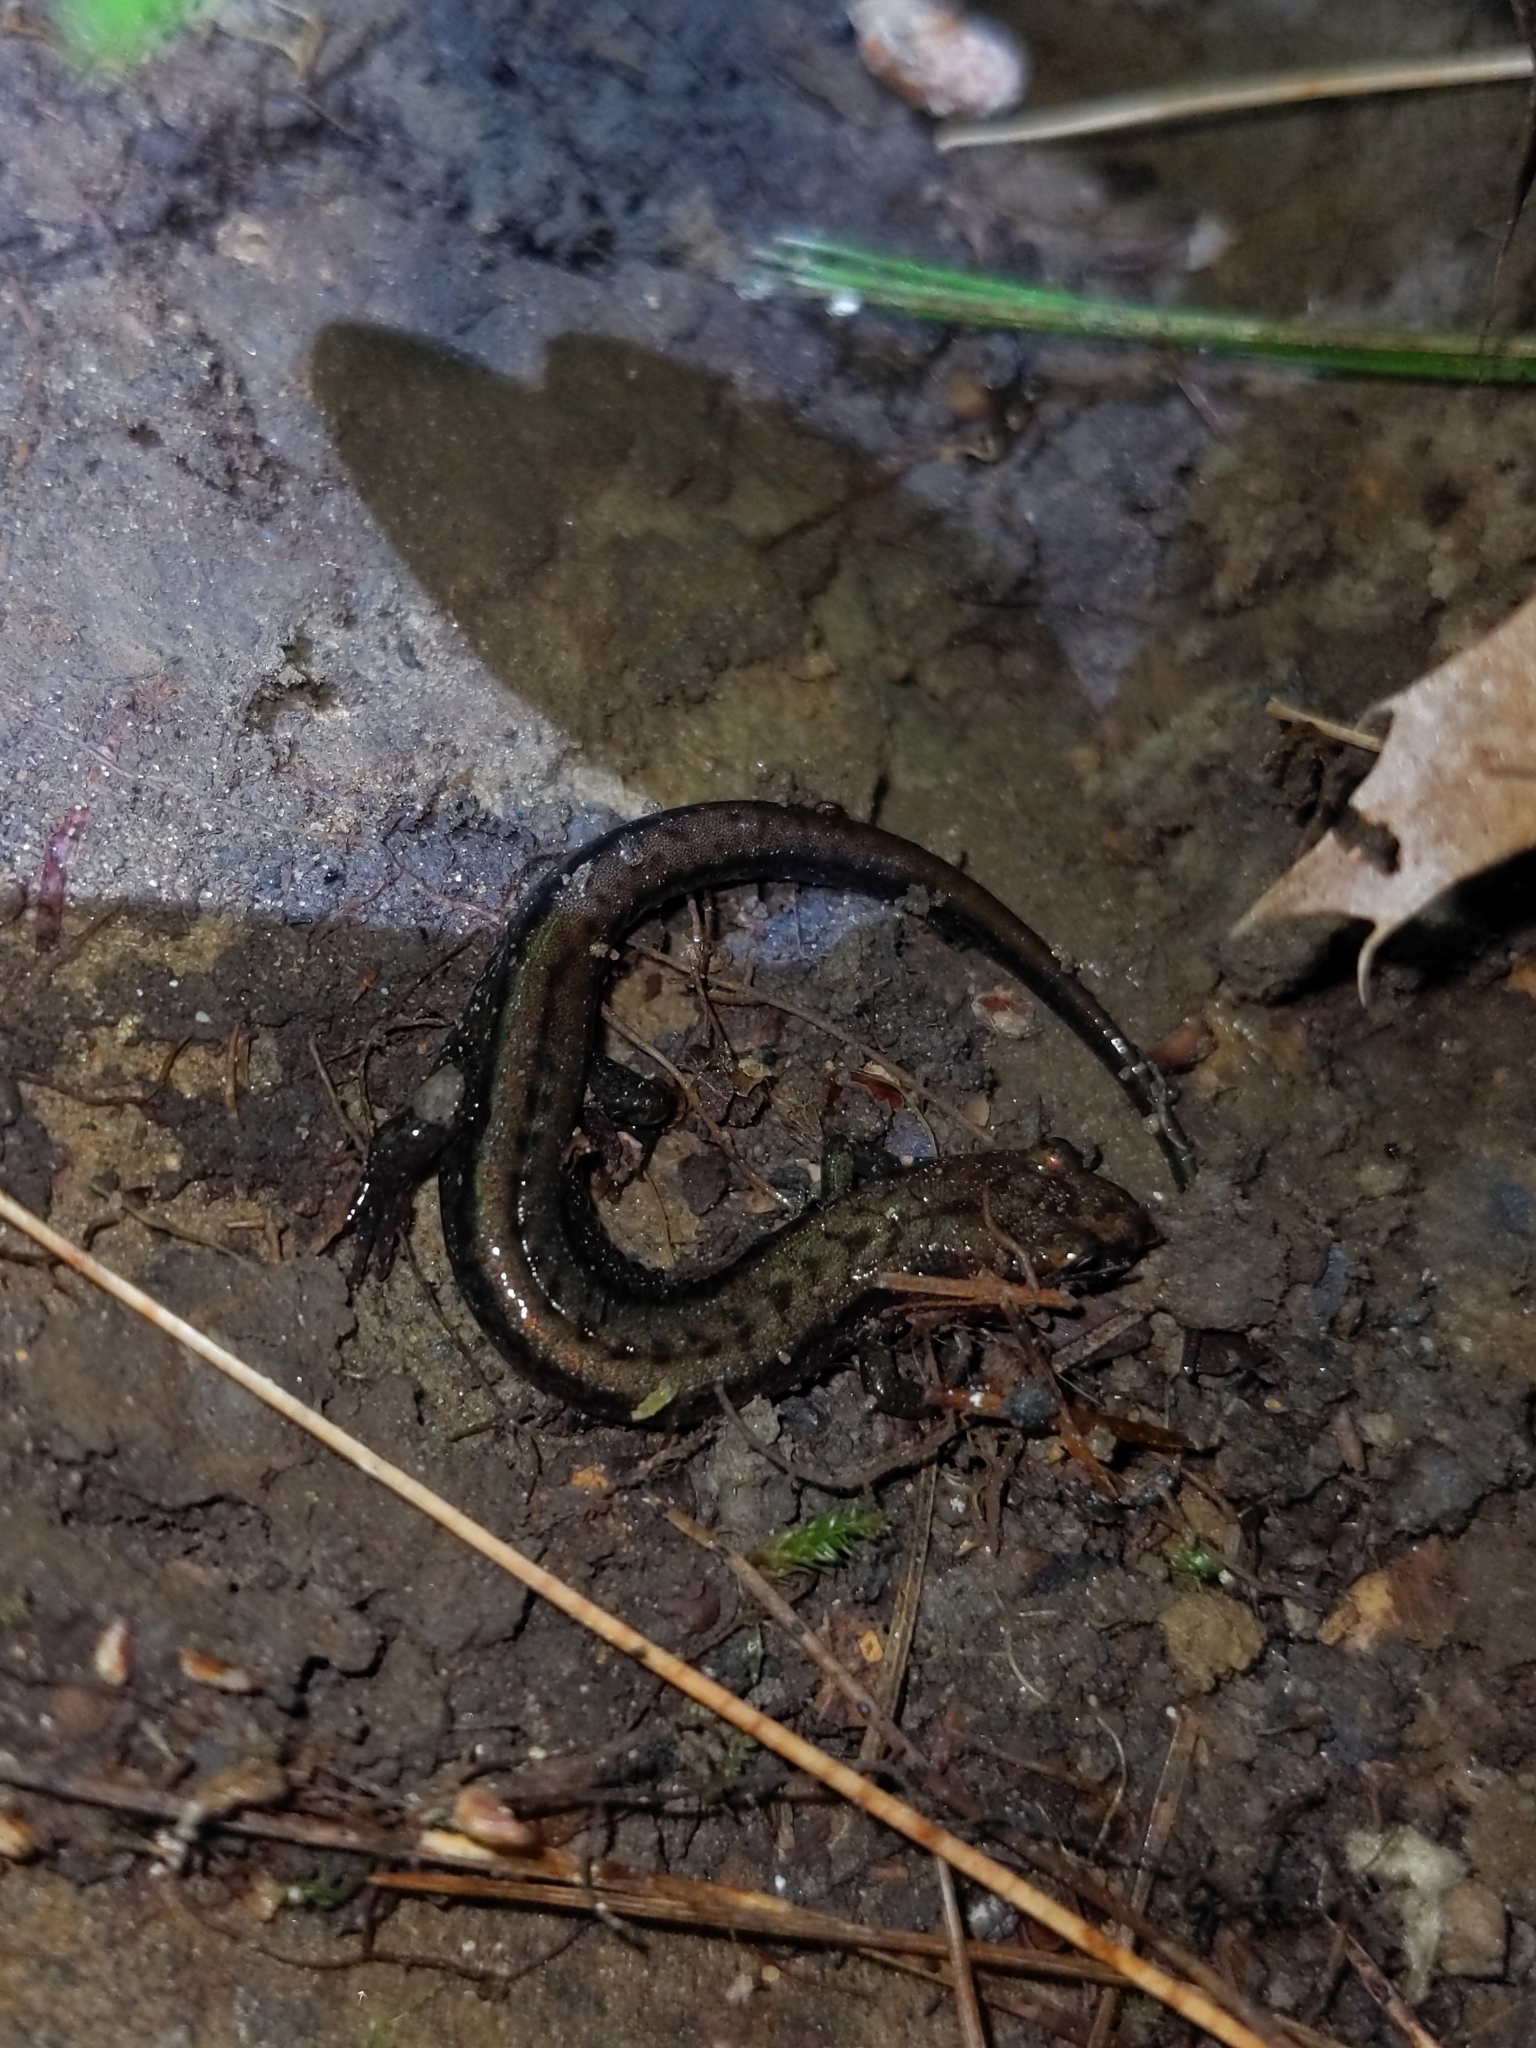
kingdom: Animalia
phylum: Chordata
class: Amphibia
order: Caudata
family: Plethodontidae
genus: Desmognathus
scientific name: Desmognathus ochrophaeus
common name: Allegheny mountain dusky salamander
